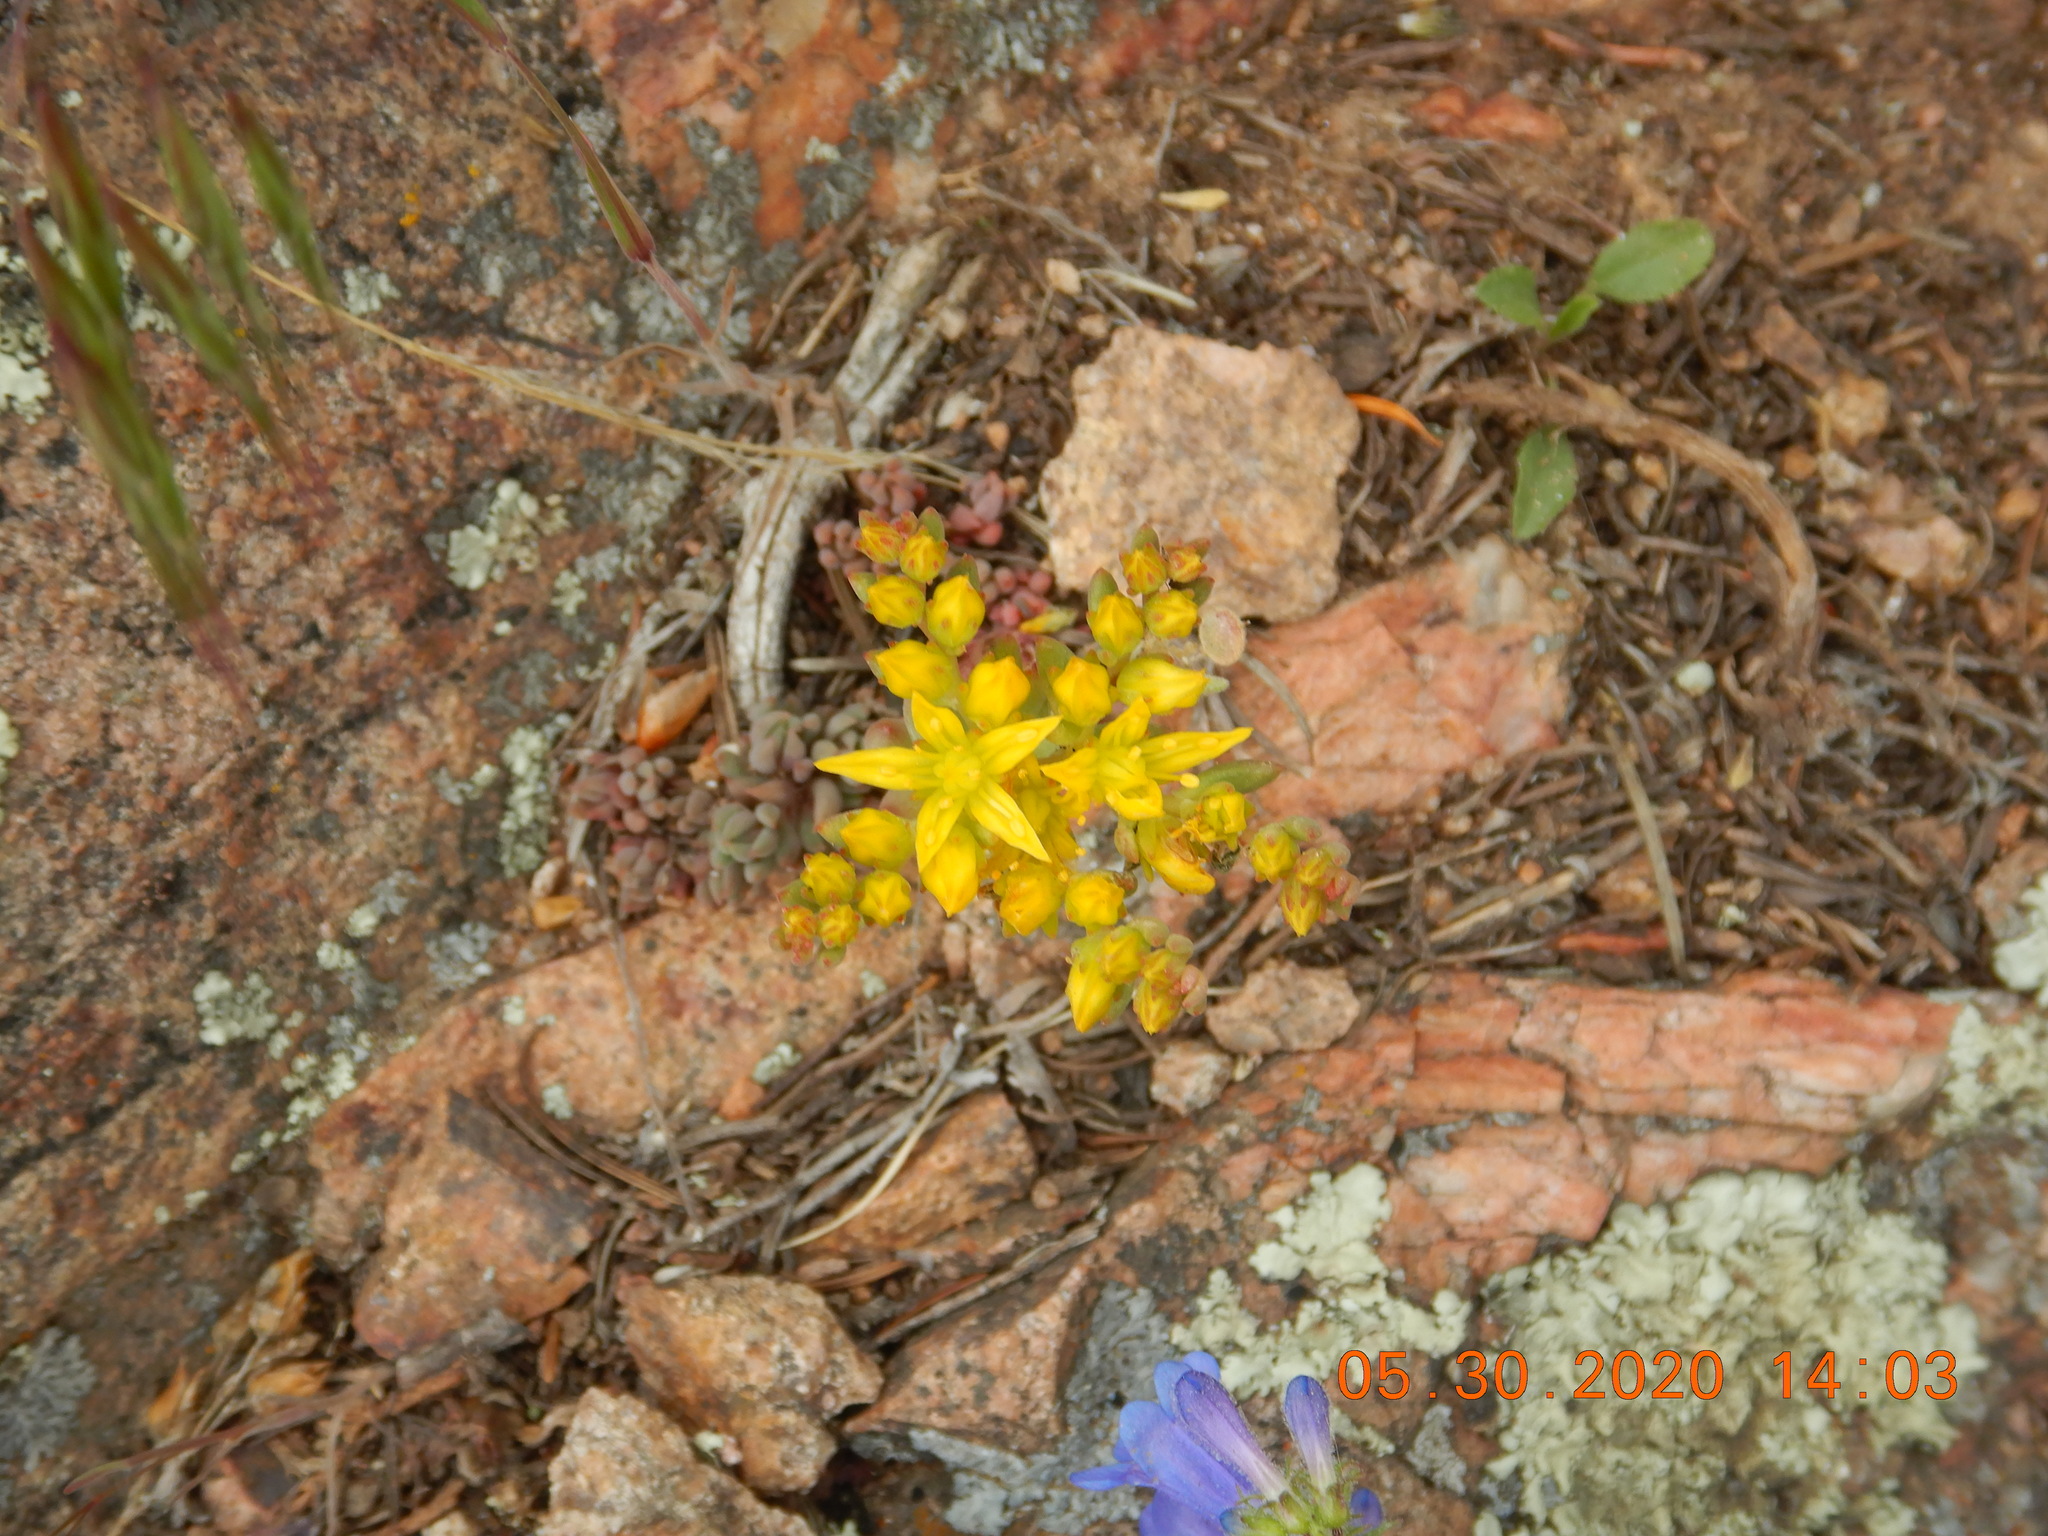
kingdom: Plantae
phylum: Tracheophyta
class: Magnoliopsida
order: Saxifragales
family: Crassulaceae
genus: Sedum
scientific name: Sedum lanceolatum
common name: Common stonecrop
